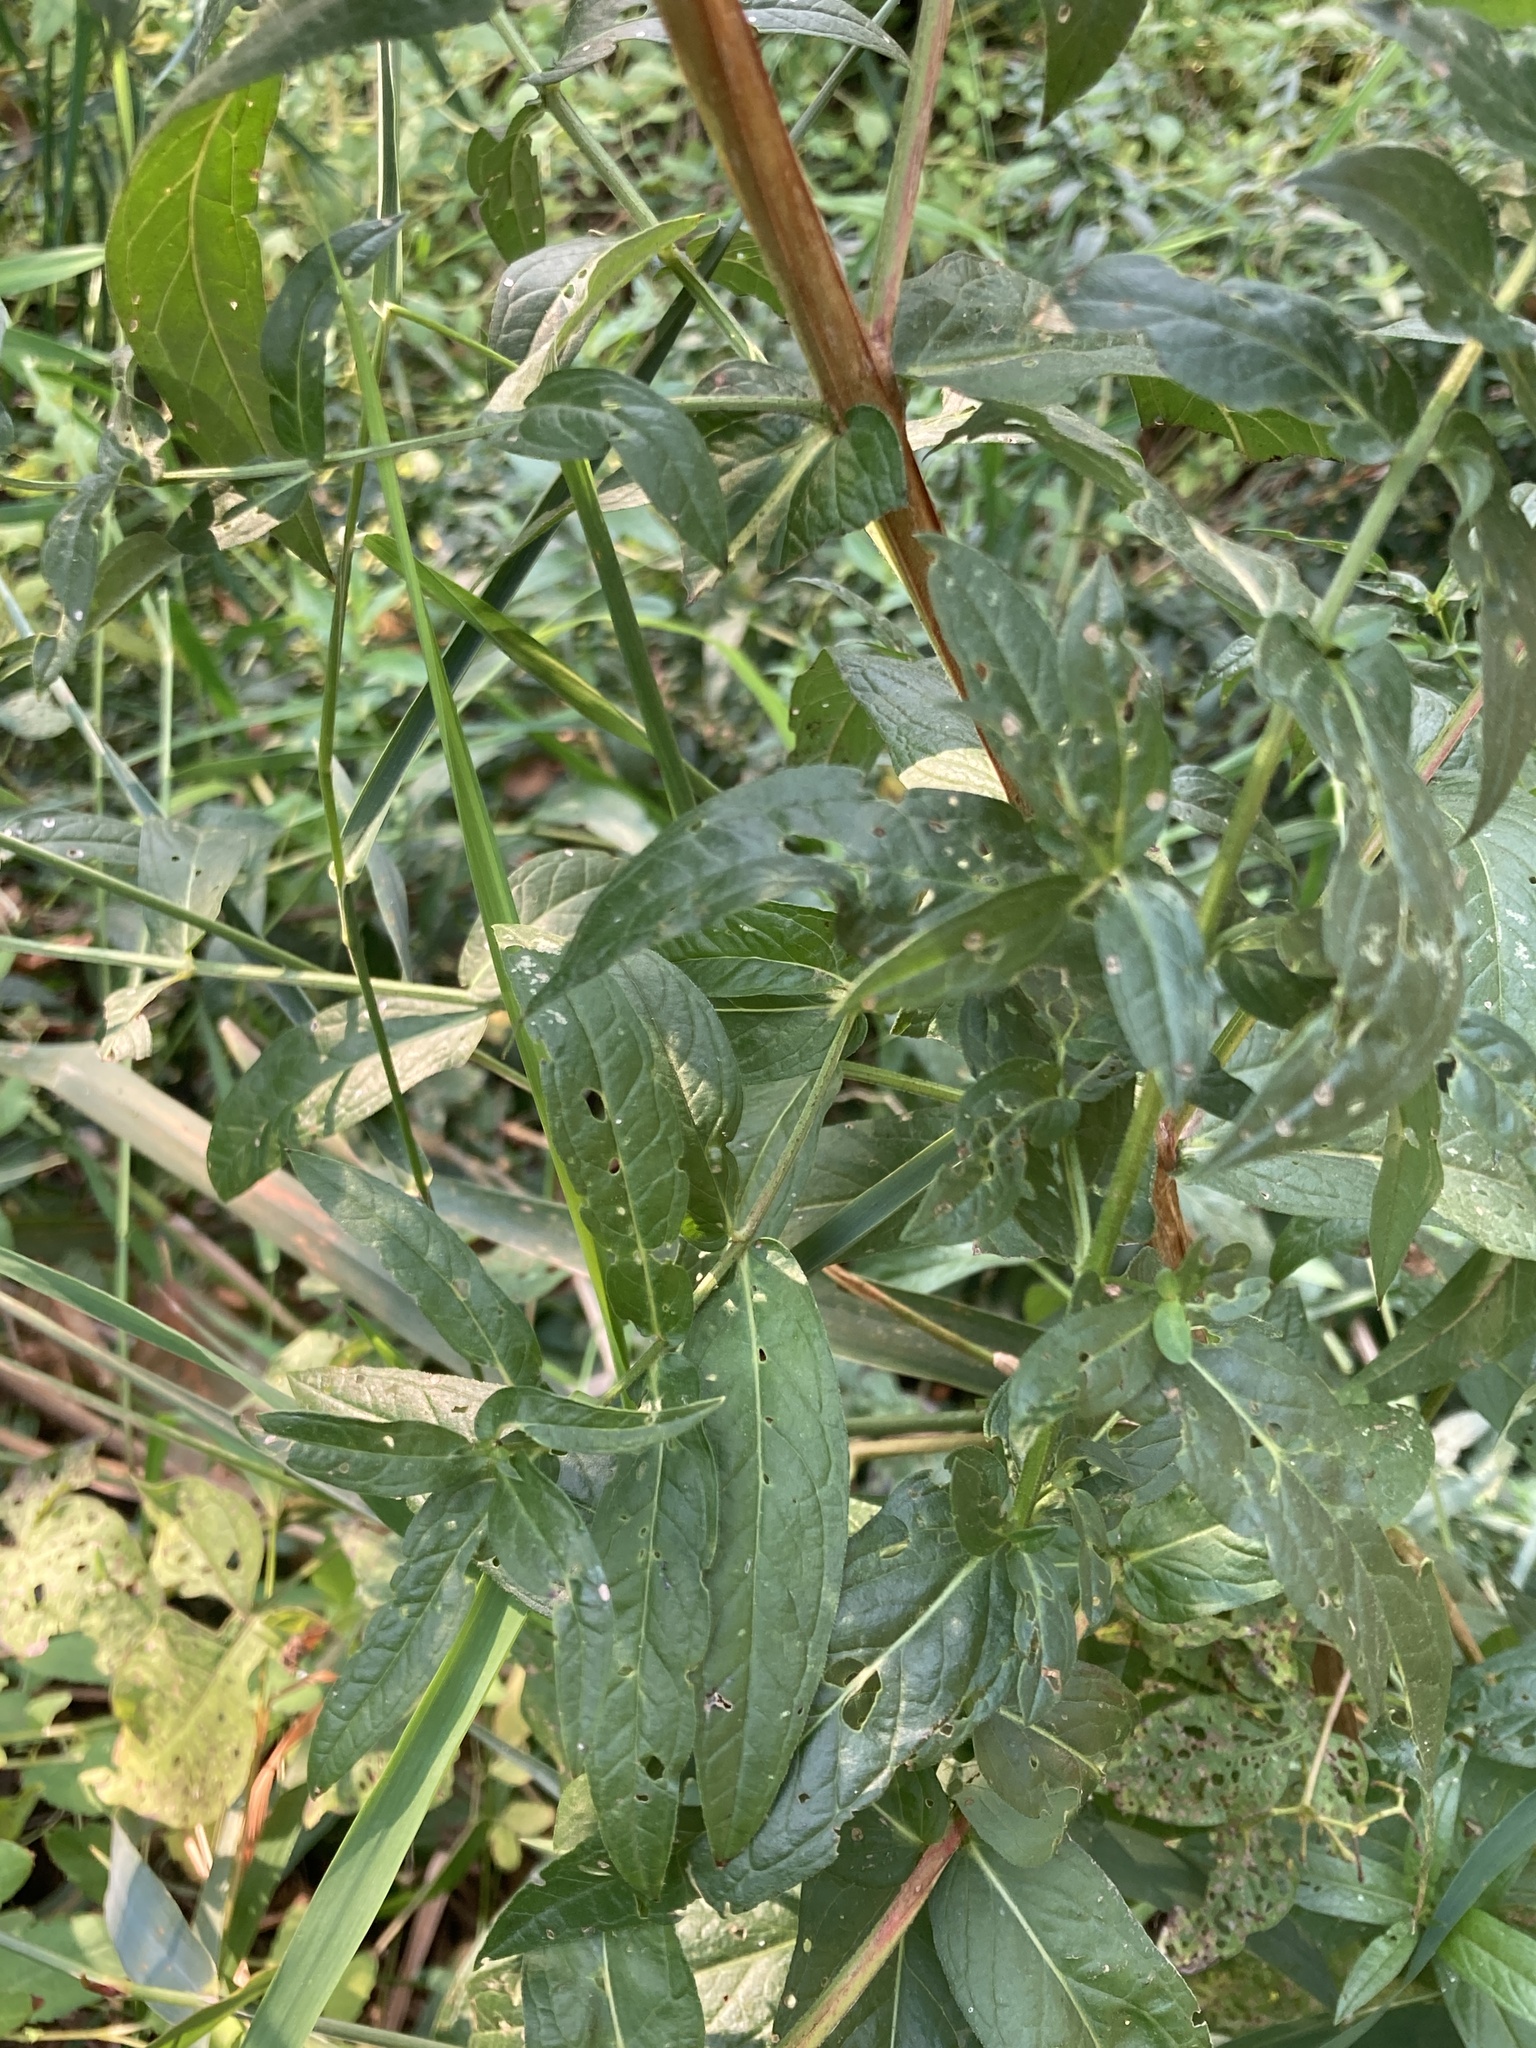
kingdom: Plantae
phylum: Tracheophyta
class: Magnoliopsida
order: Myrtales
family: Lythraceae
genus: Lythrum
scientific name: Lythrum salicaria
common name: Purple loosestrife
